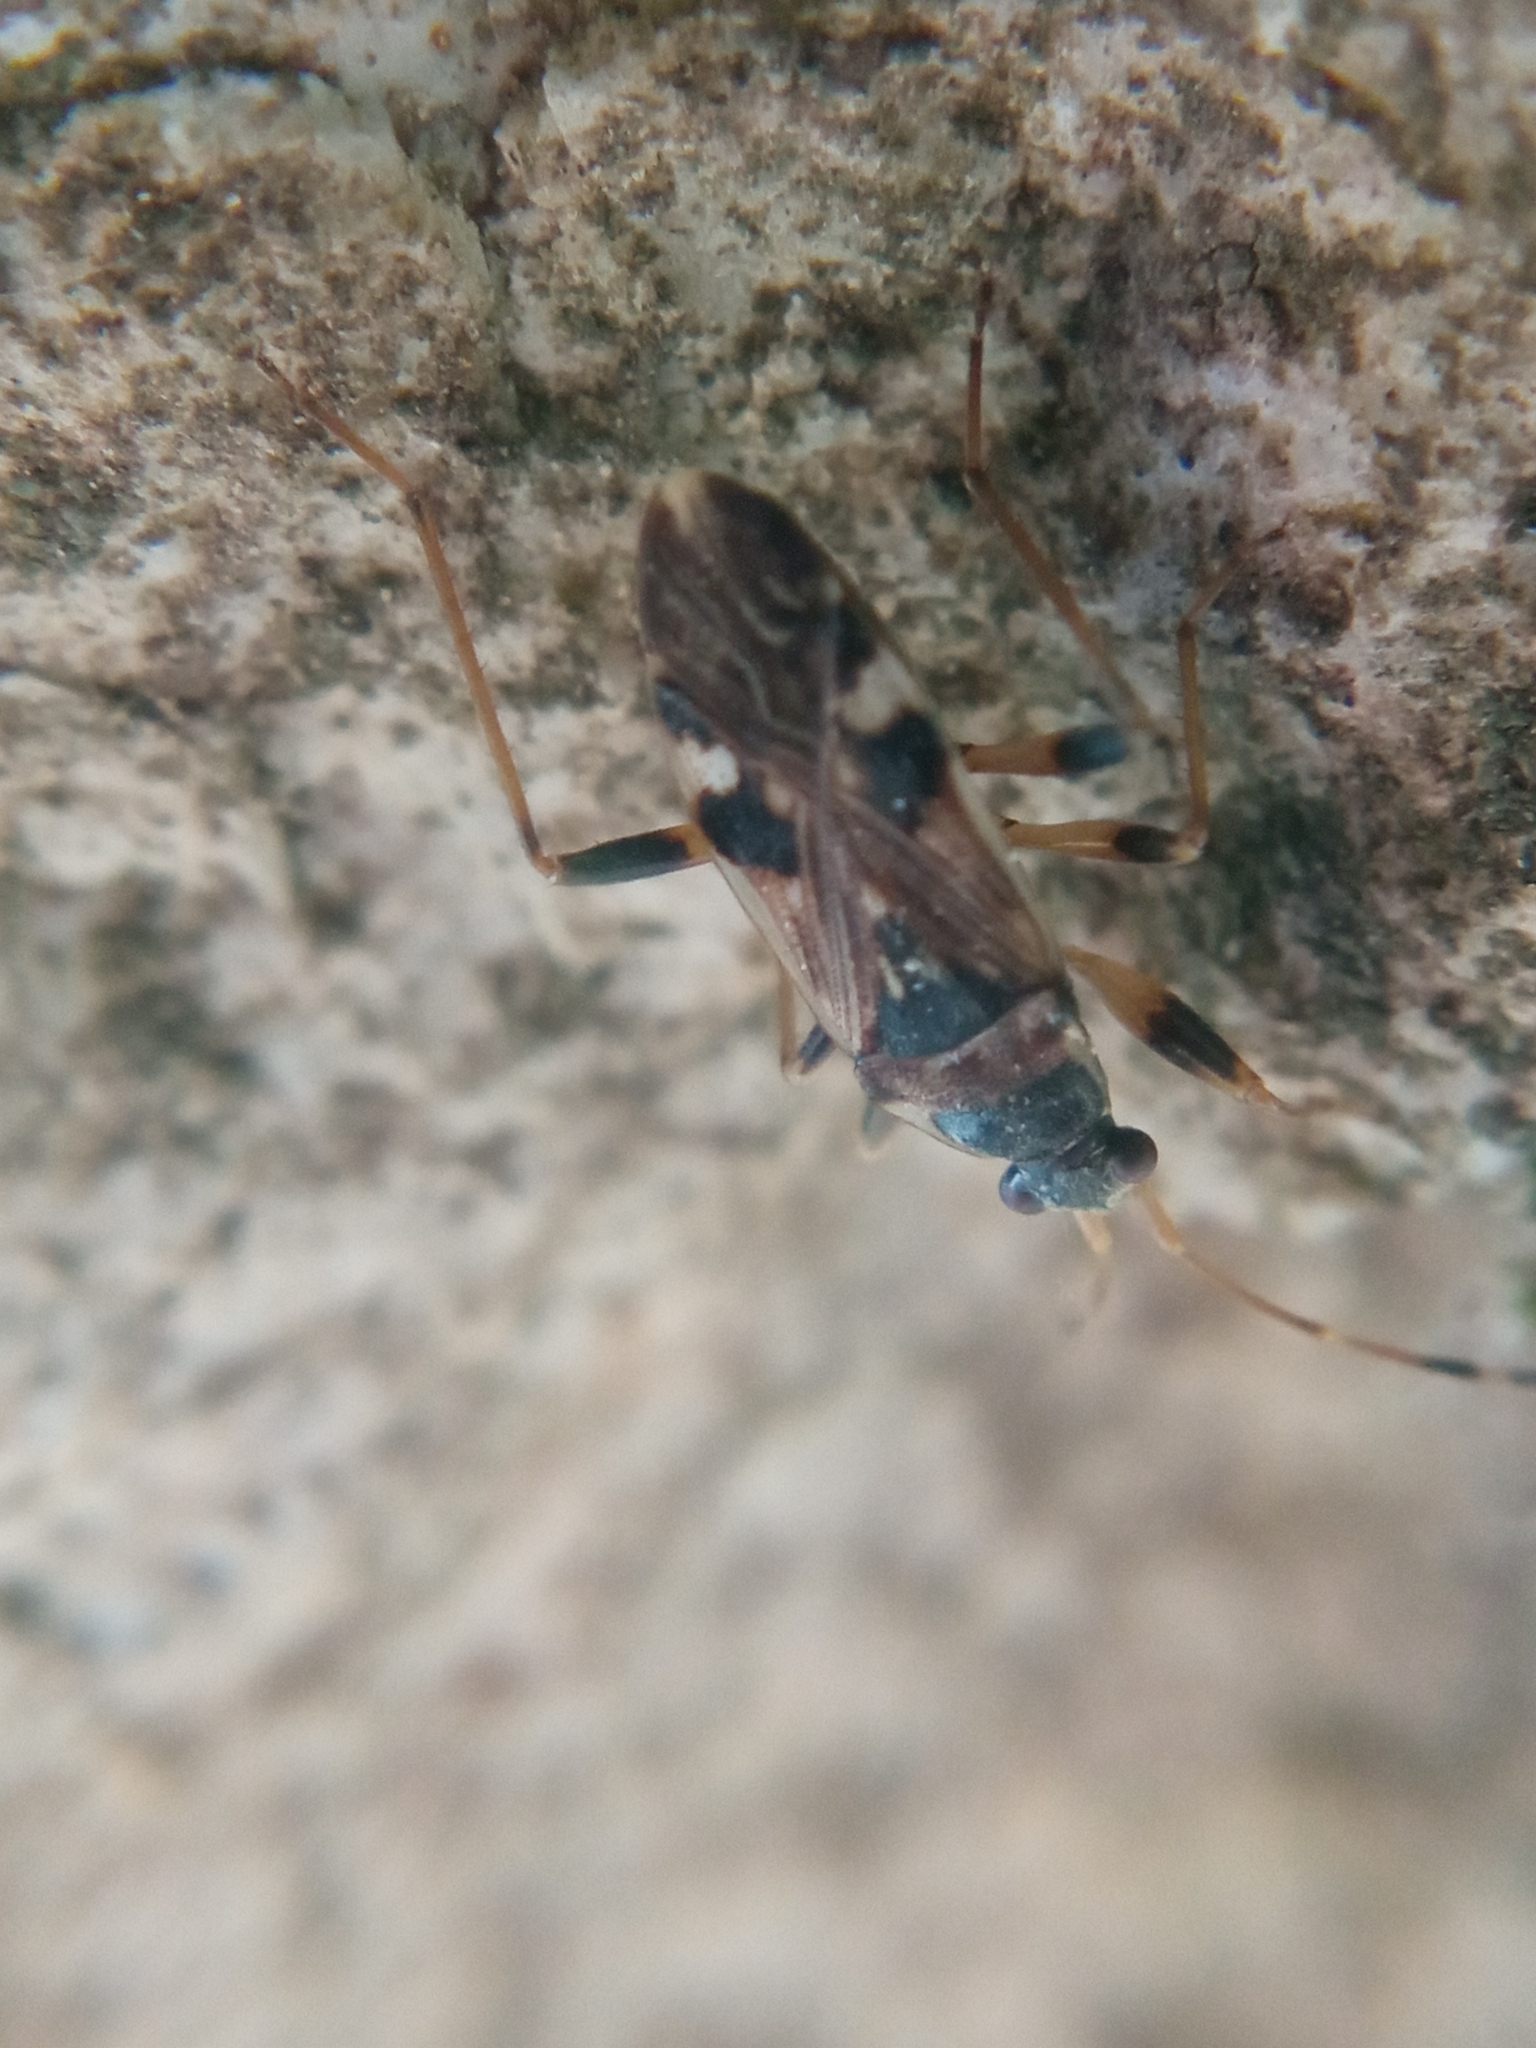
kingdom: Animalia
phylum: Arthropoda
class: Insecta
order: Hemiptera
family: Rhyparochromidae
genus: Beosus
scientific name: Beosus maritimus
